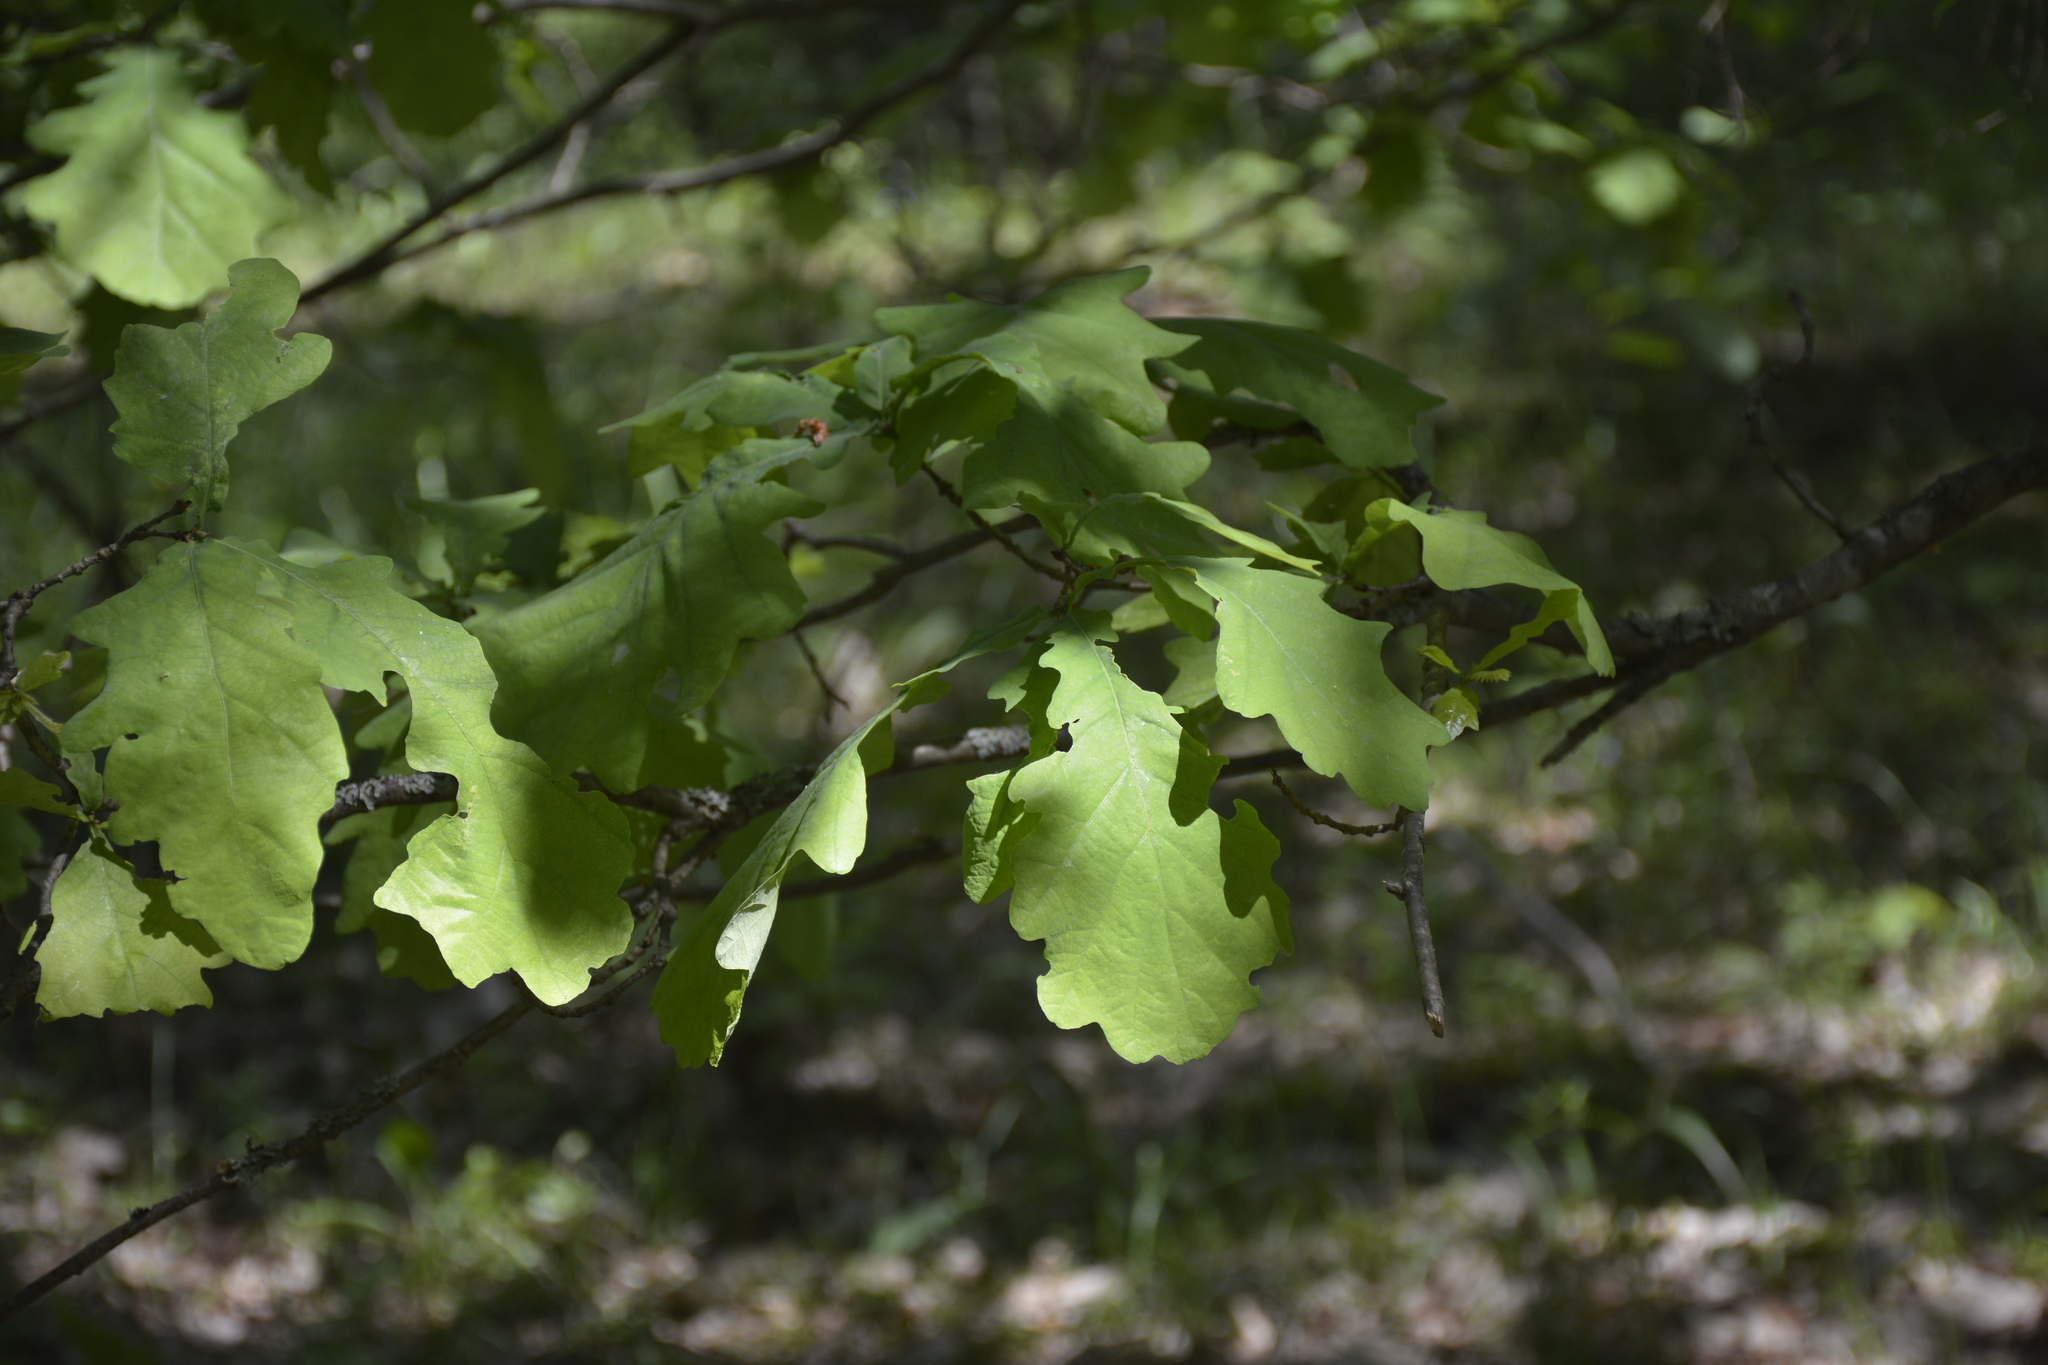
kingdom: Plantae
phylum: Tracheophyta
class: Magnoliopsida
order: Fagales
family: Fagaceae
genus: Quercus
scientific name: Quercus robur
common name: Pedunculate oak
